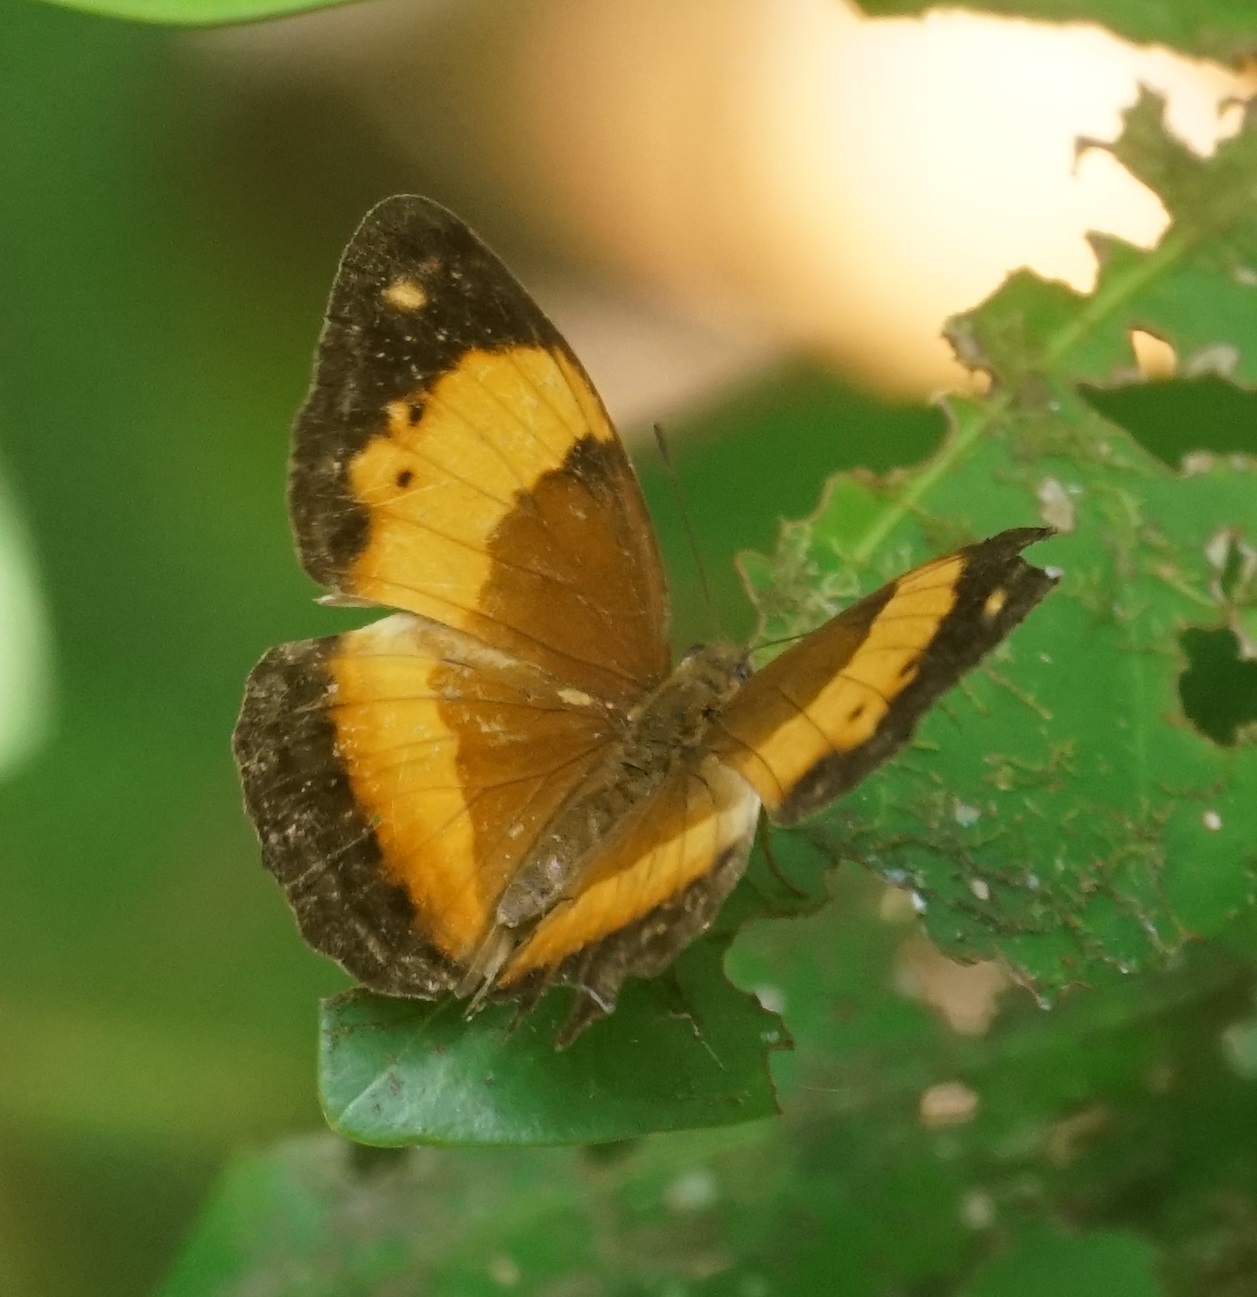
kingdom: Animalia
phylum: Arthropoda
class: Insecta
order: Lepidoptera
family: Nymphalidae
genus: Cupha
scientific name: Cupha prosope
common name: Bordered rustic
